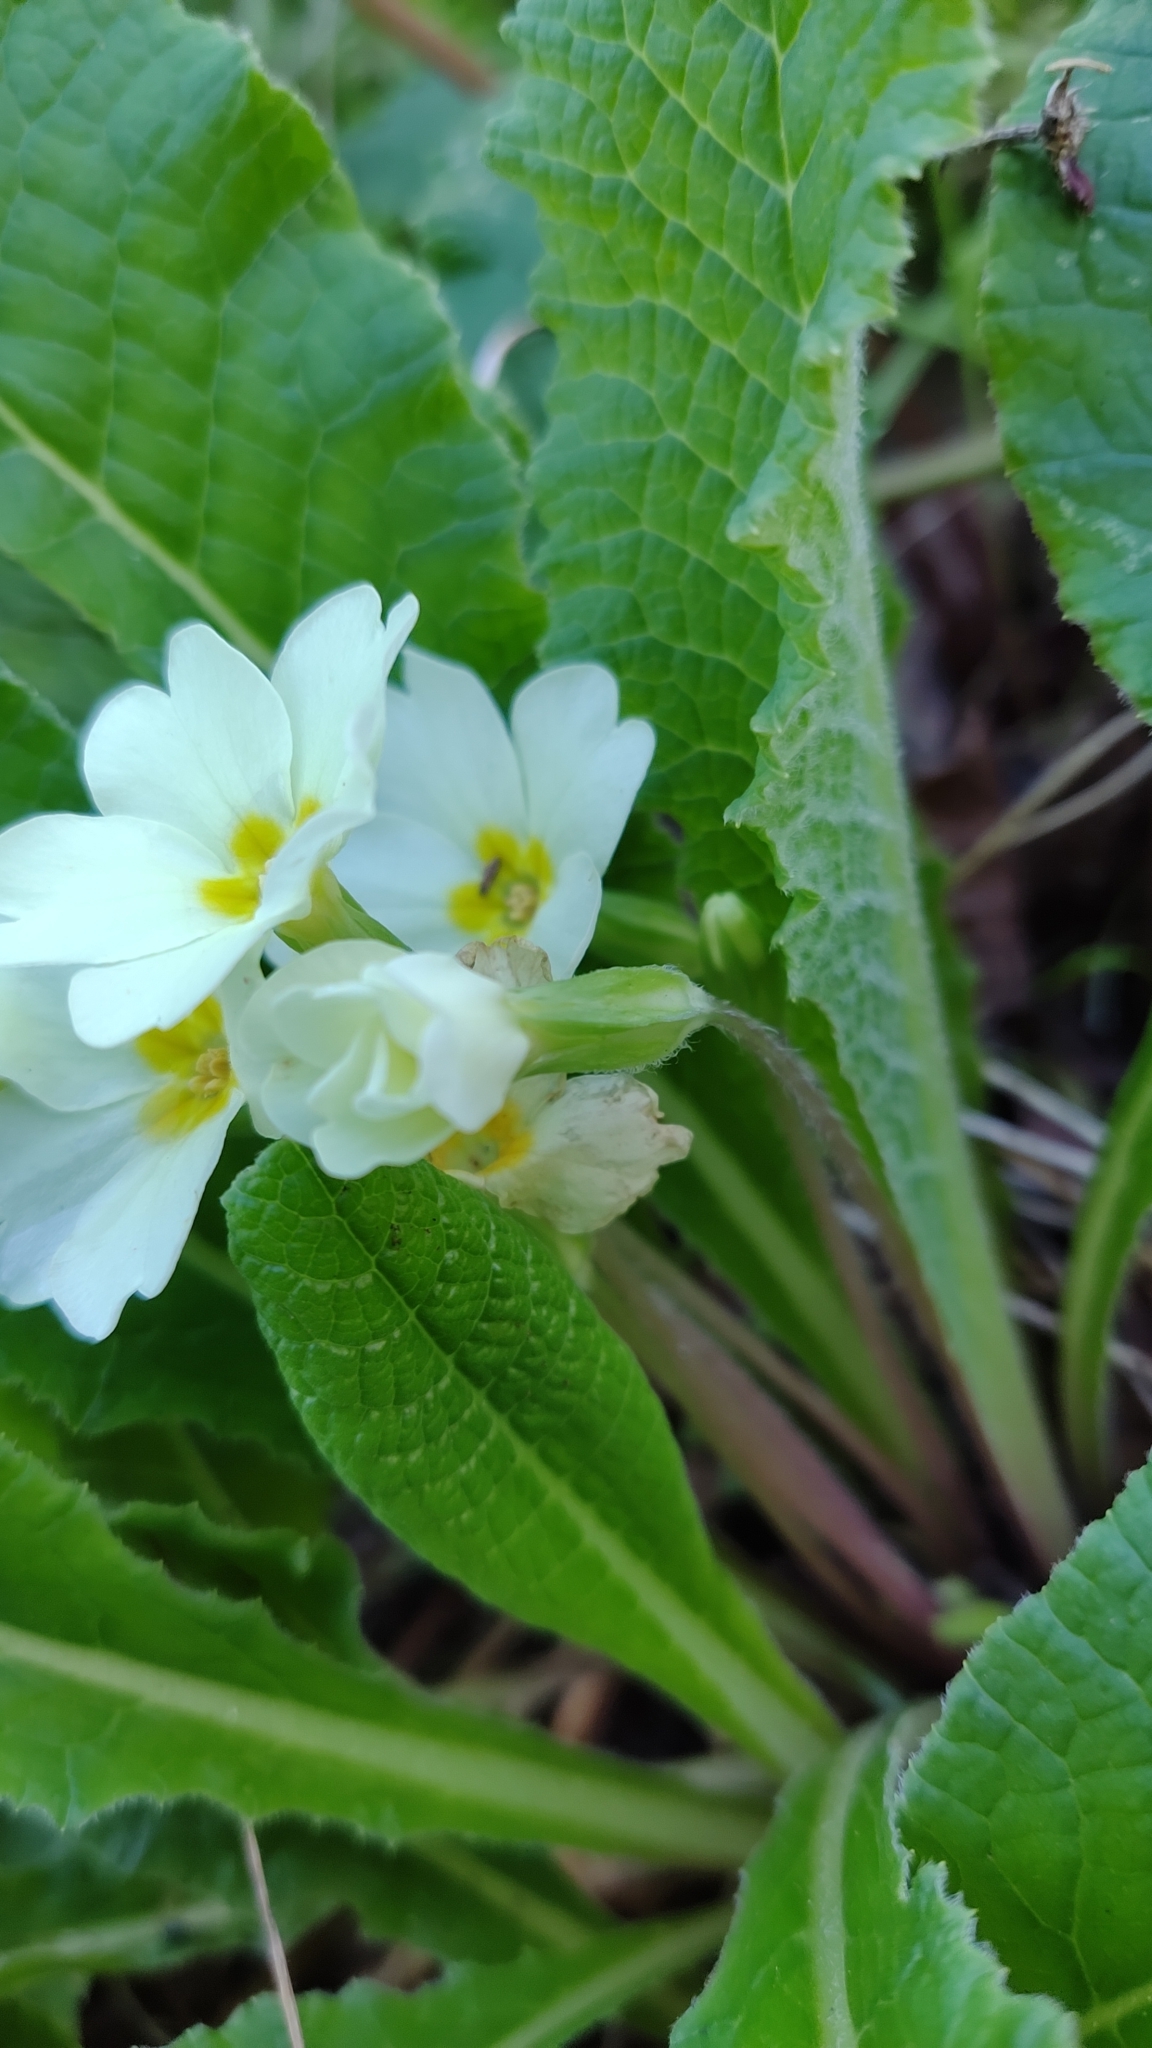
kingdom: Plantae
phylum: Tracheophyta
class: Magnoliopsida
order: Ericales
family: Primulaceae
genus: Primula
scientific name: Primula vulgaris
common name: Primrose
